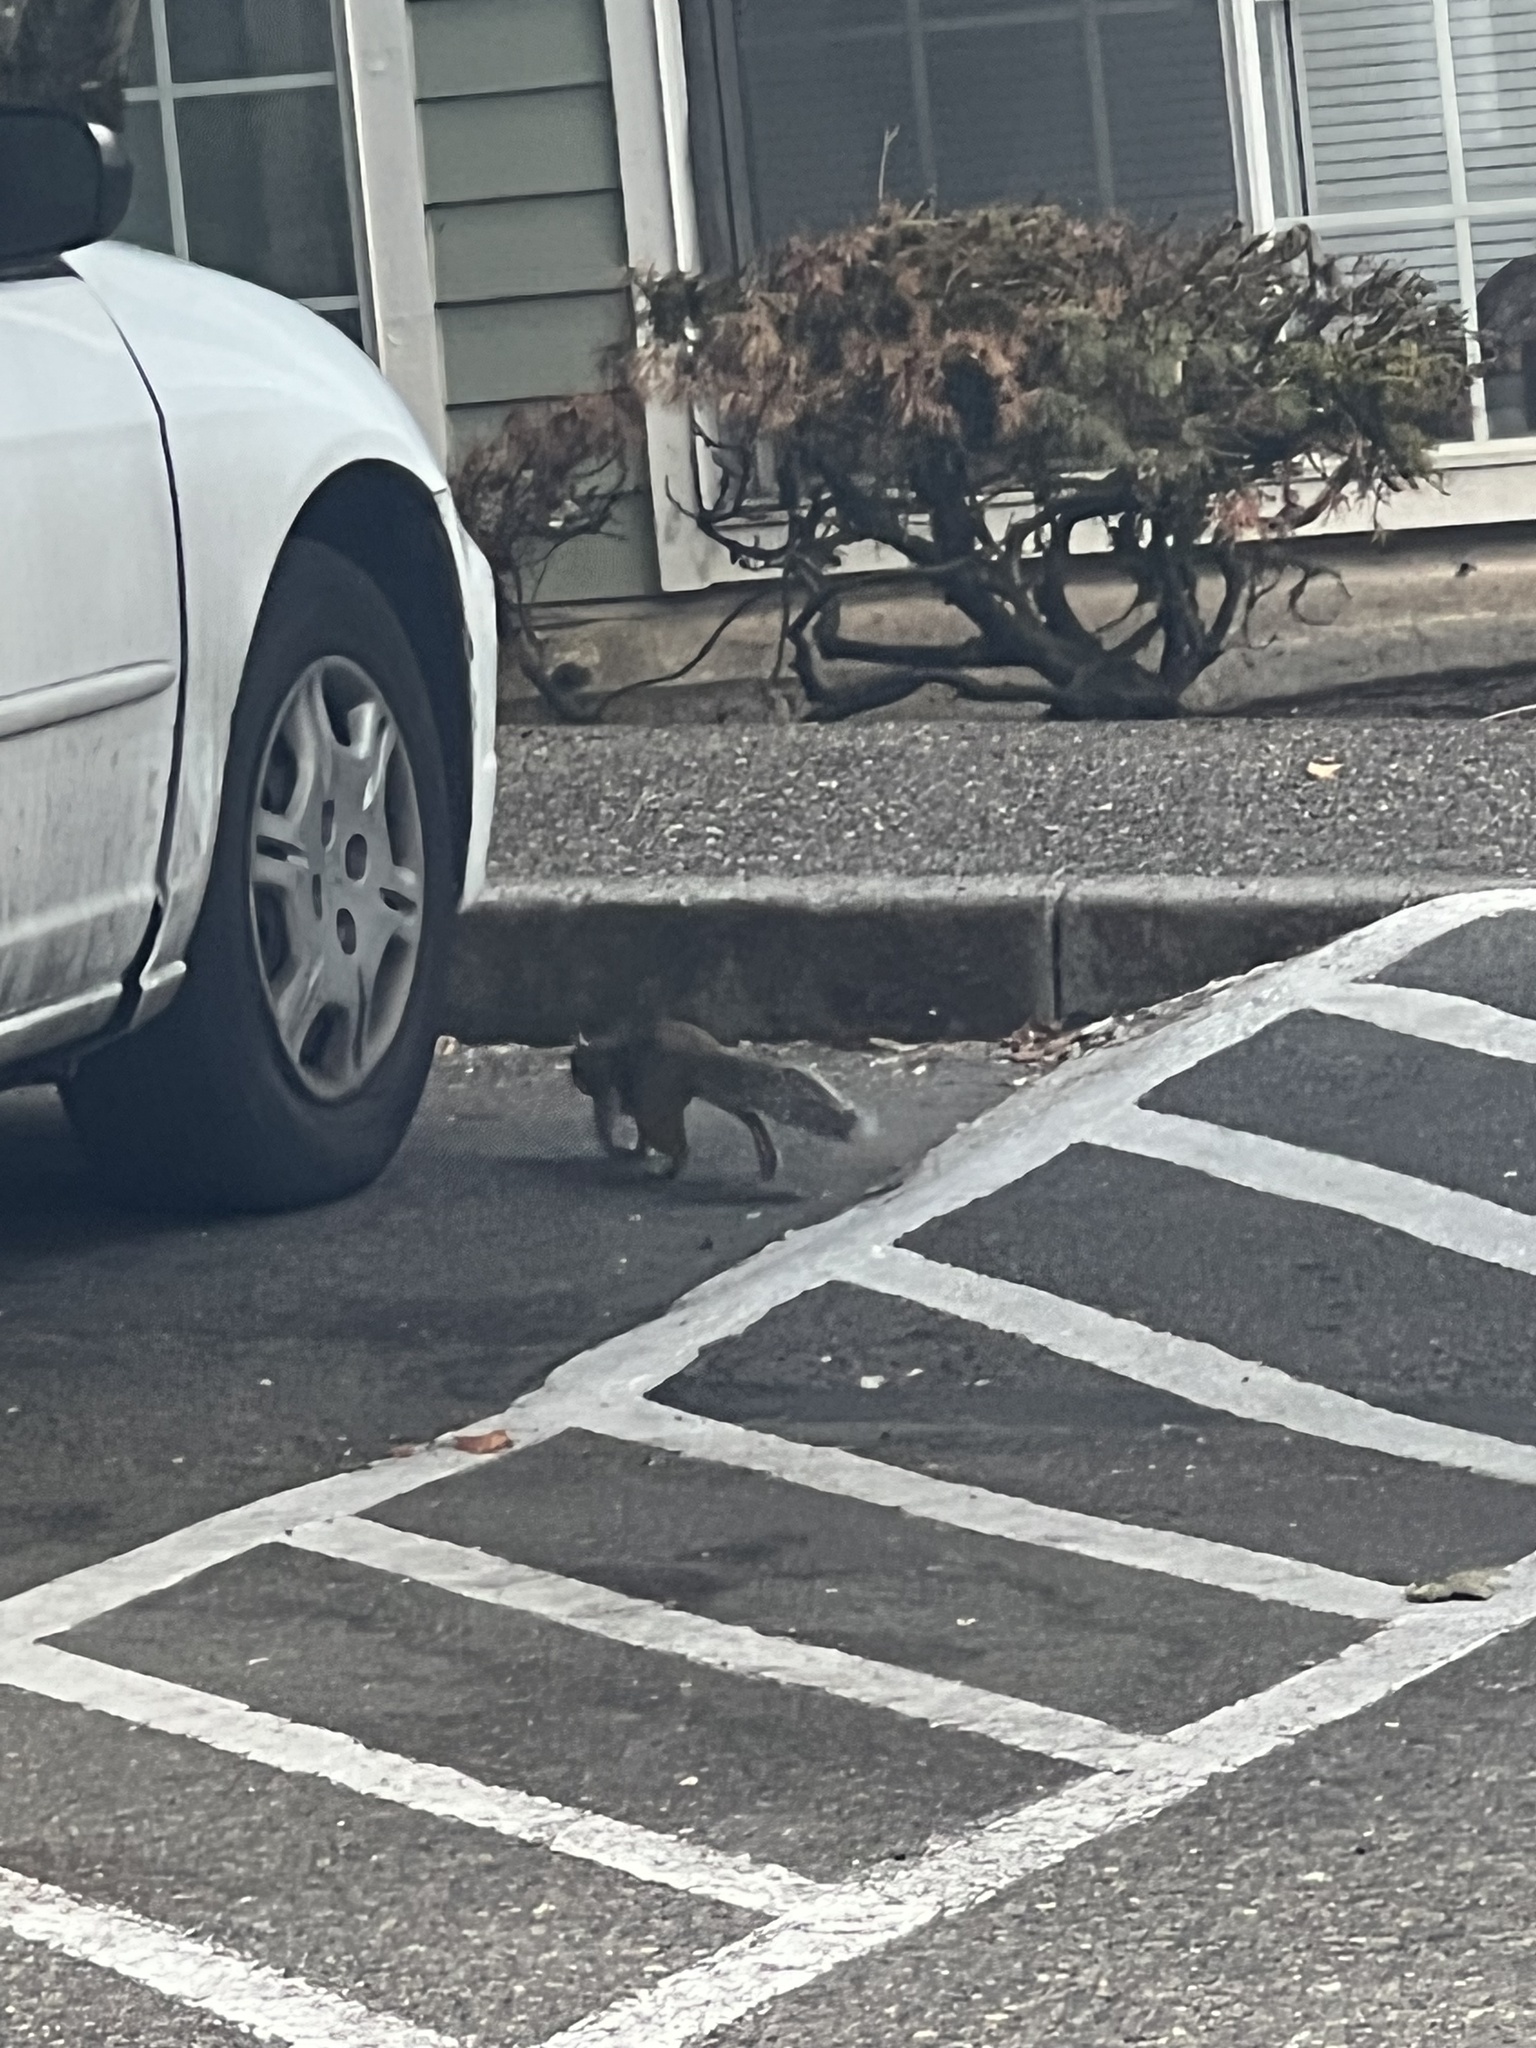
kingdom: Animalia
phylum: Chordata
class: Mammalia
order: Rodentia
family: Sciuridae
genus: Sciurus
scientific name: Sciurus carolinensis
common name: Eastern gray squirrel
